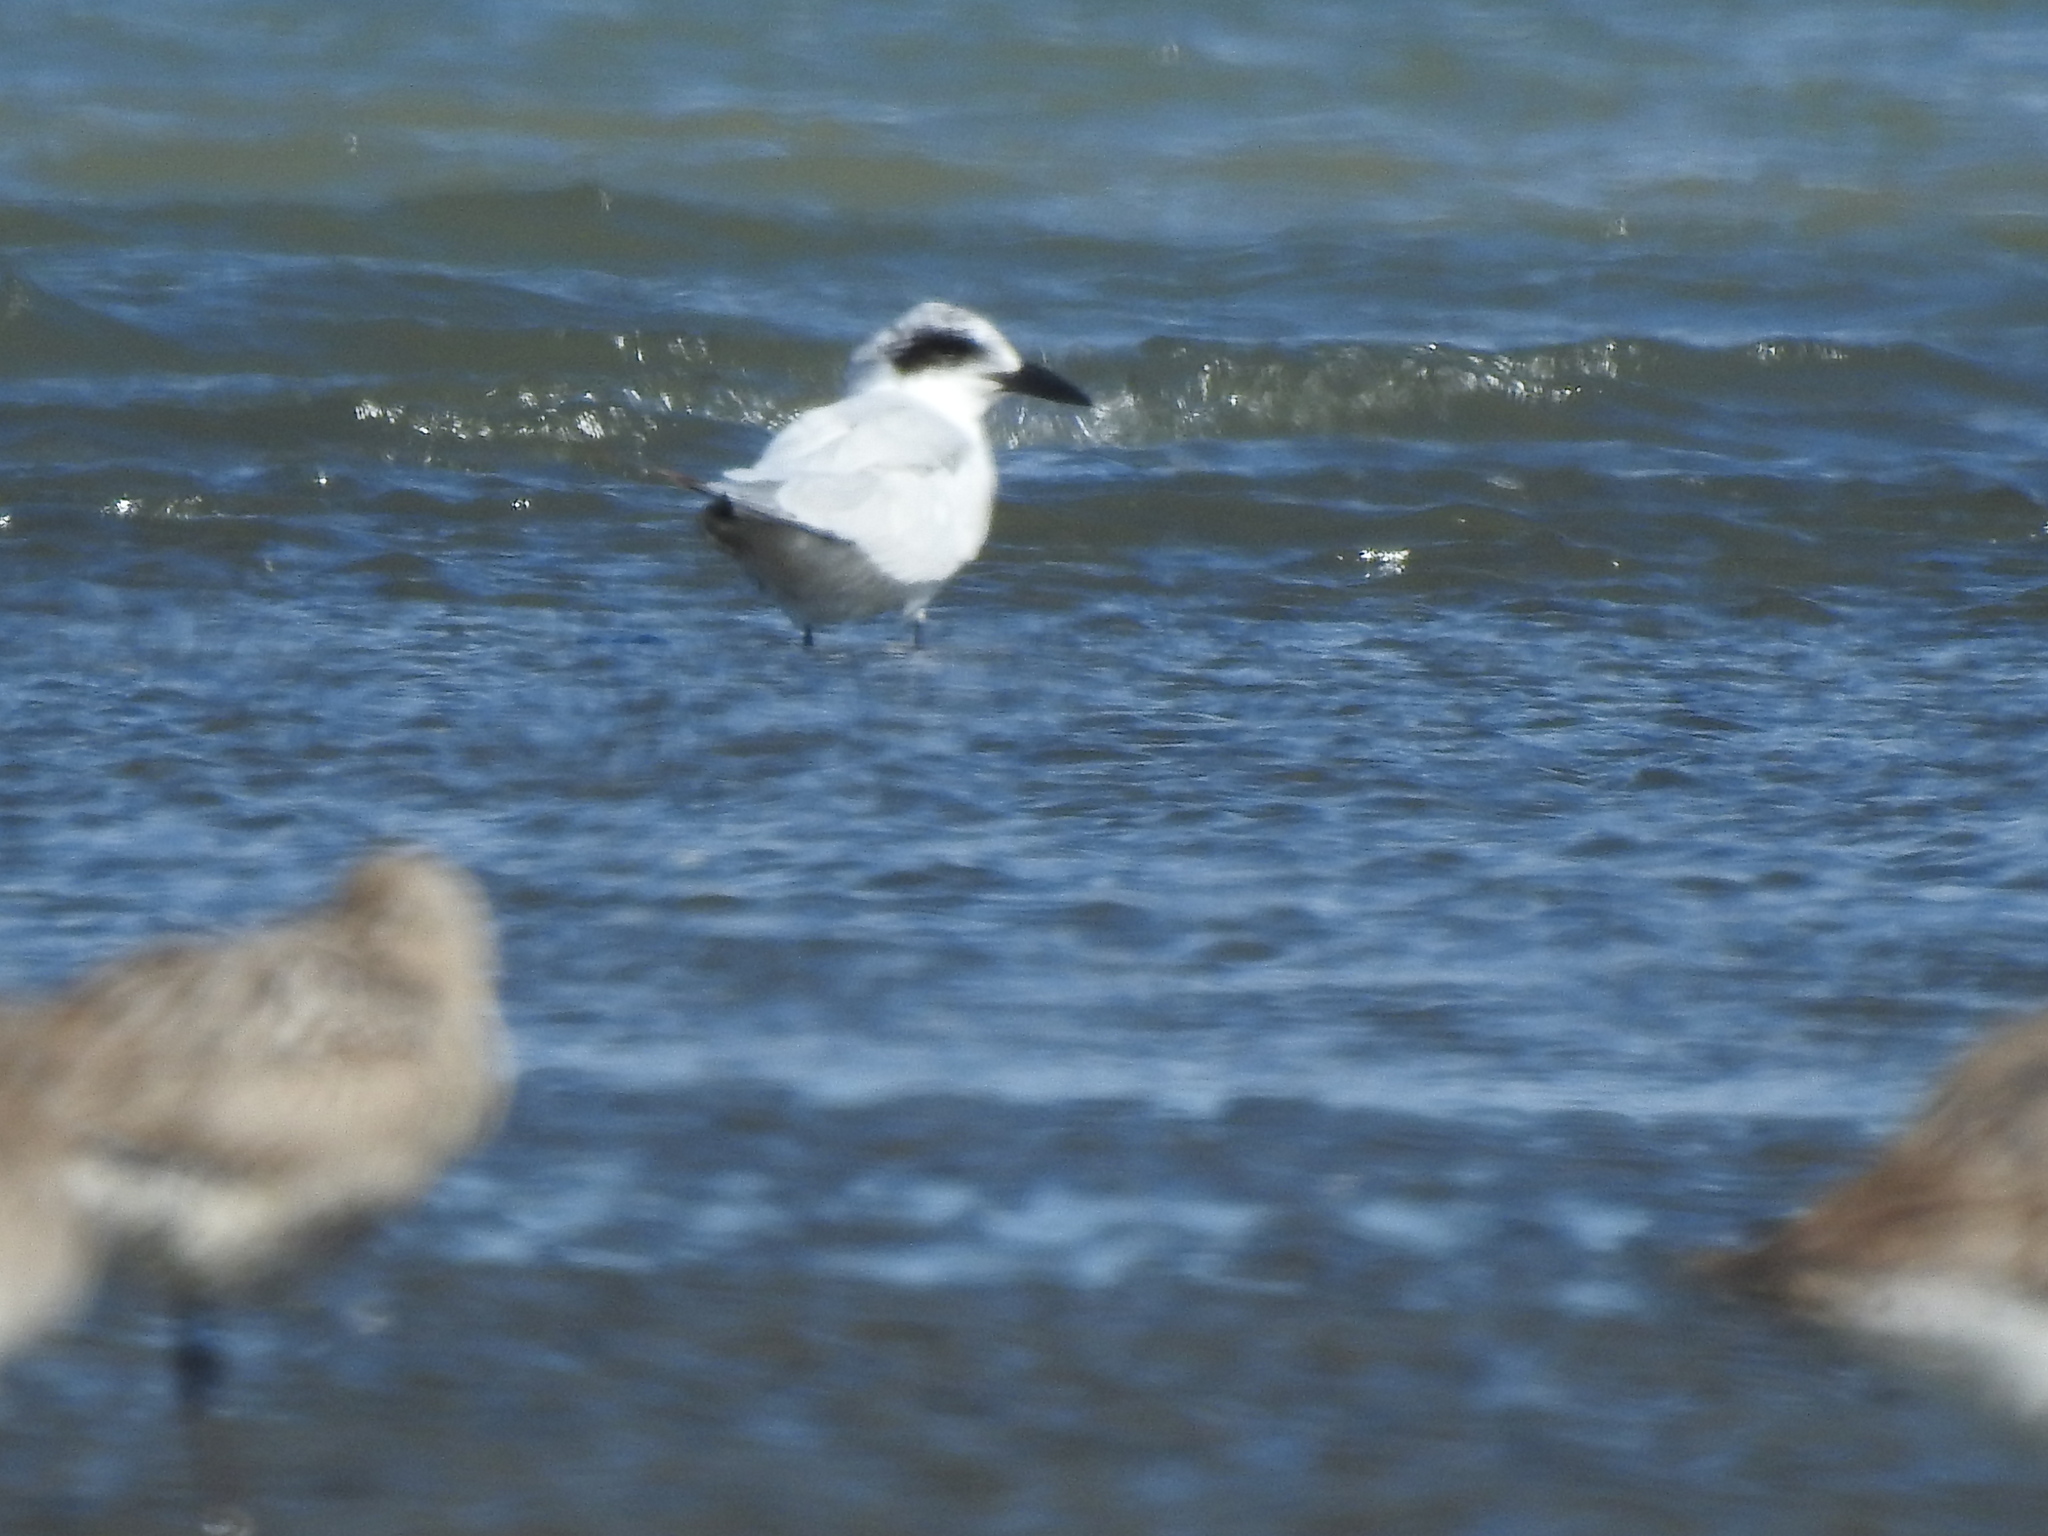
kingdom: Animalia
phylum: Chordata
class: Aves
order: Charadriiformes
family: Laridae
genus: Gelochelidon
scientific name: Gelochelidon macrotarsa
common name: Australian tern
